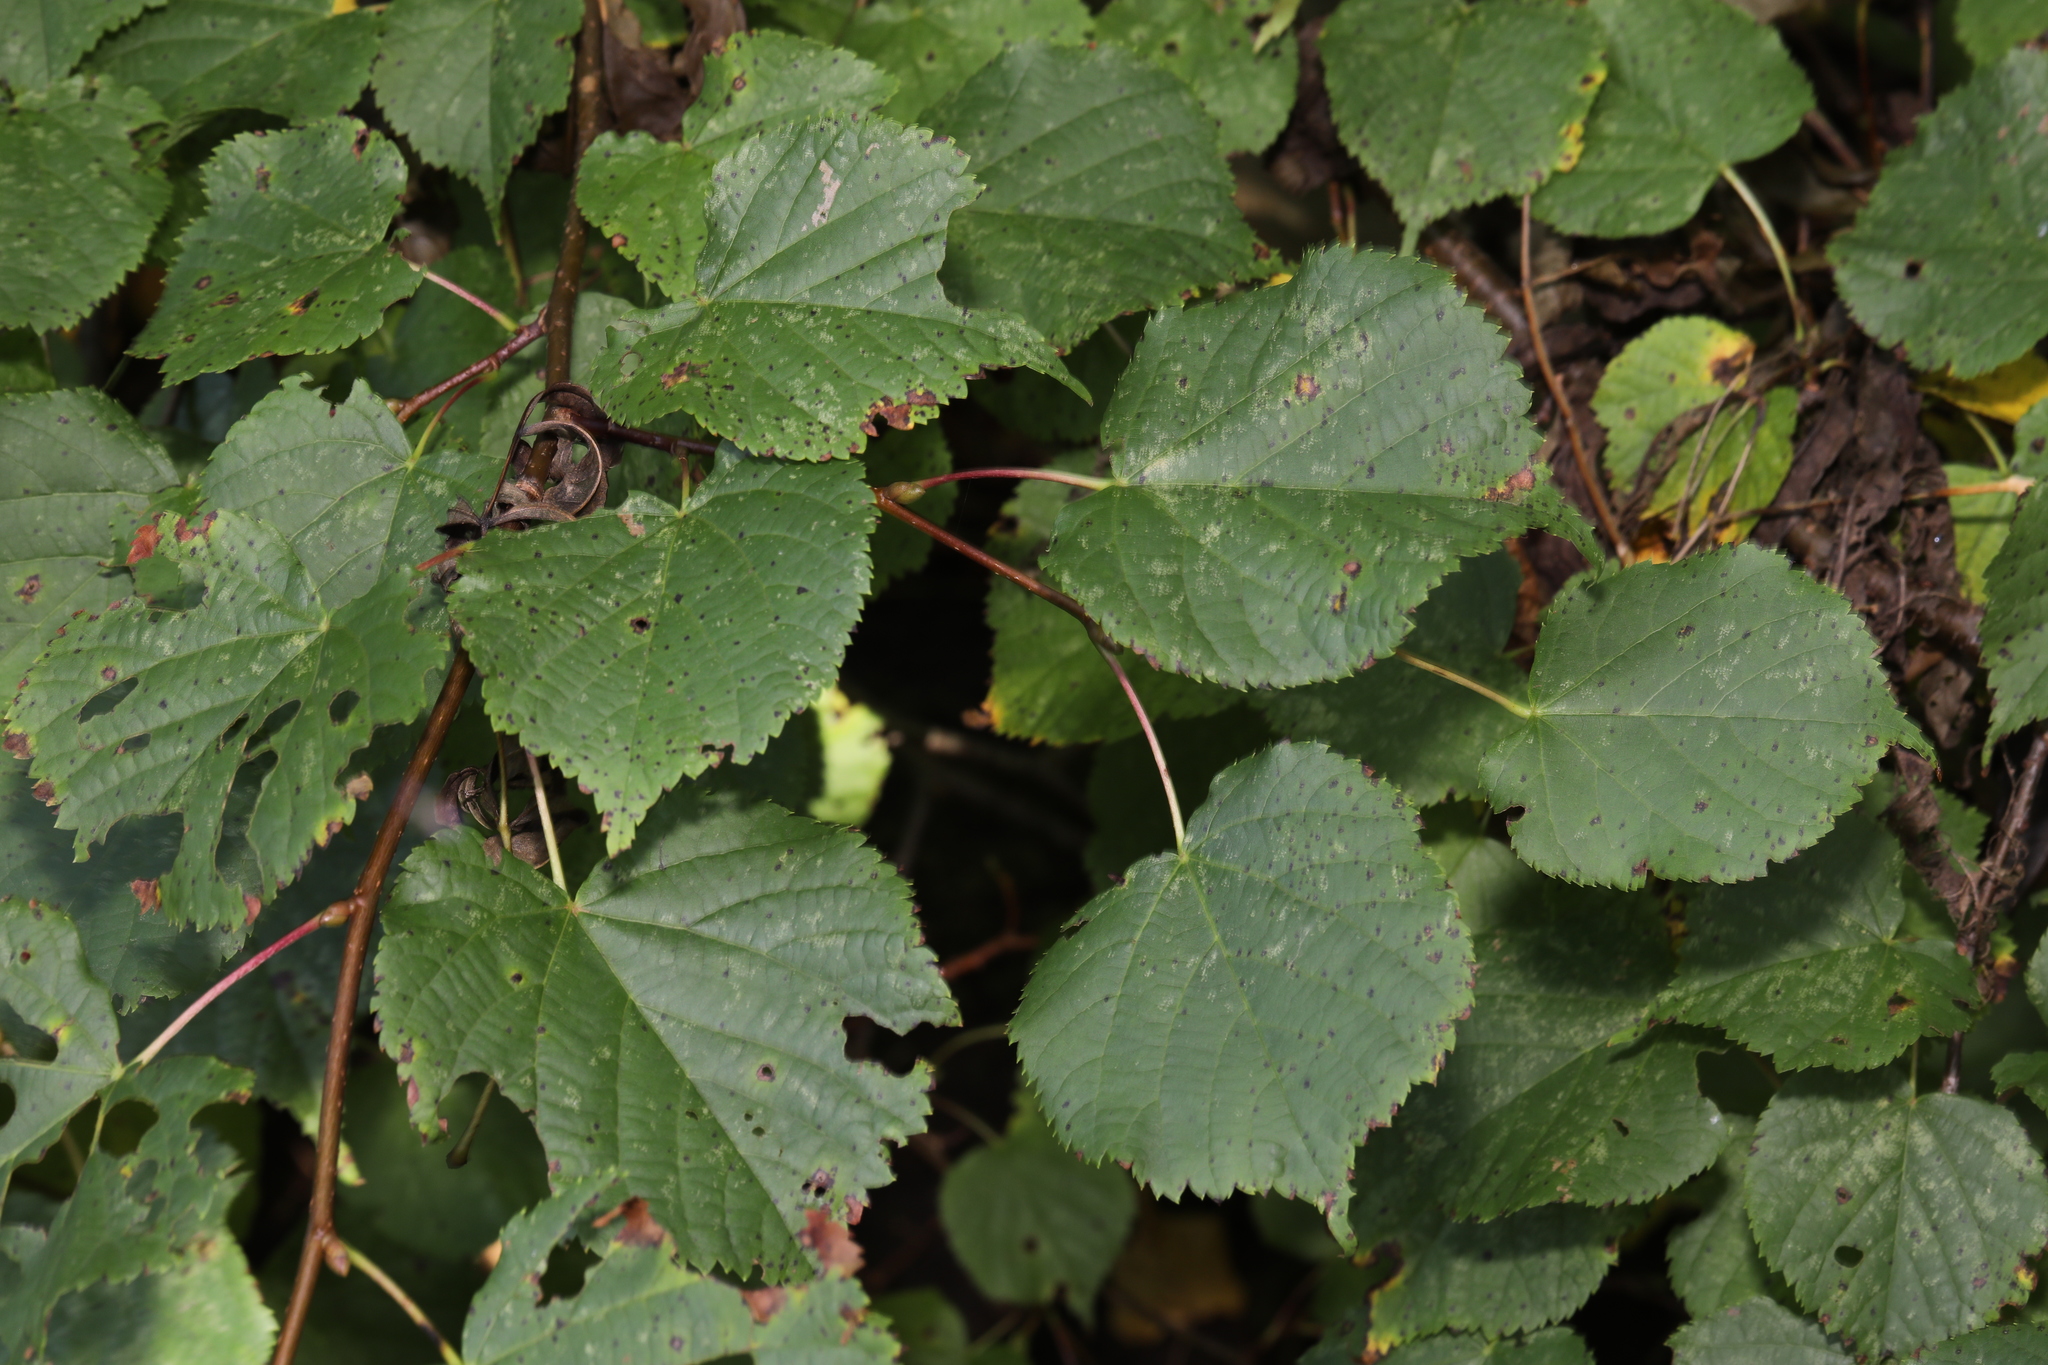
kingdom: Plantae
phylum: Tracheophyta
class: Magnoliopsida
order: Malvales
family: Malvaceae
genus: Tilia
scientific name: Tilia europaea
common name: European linden
